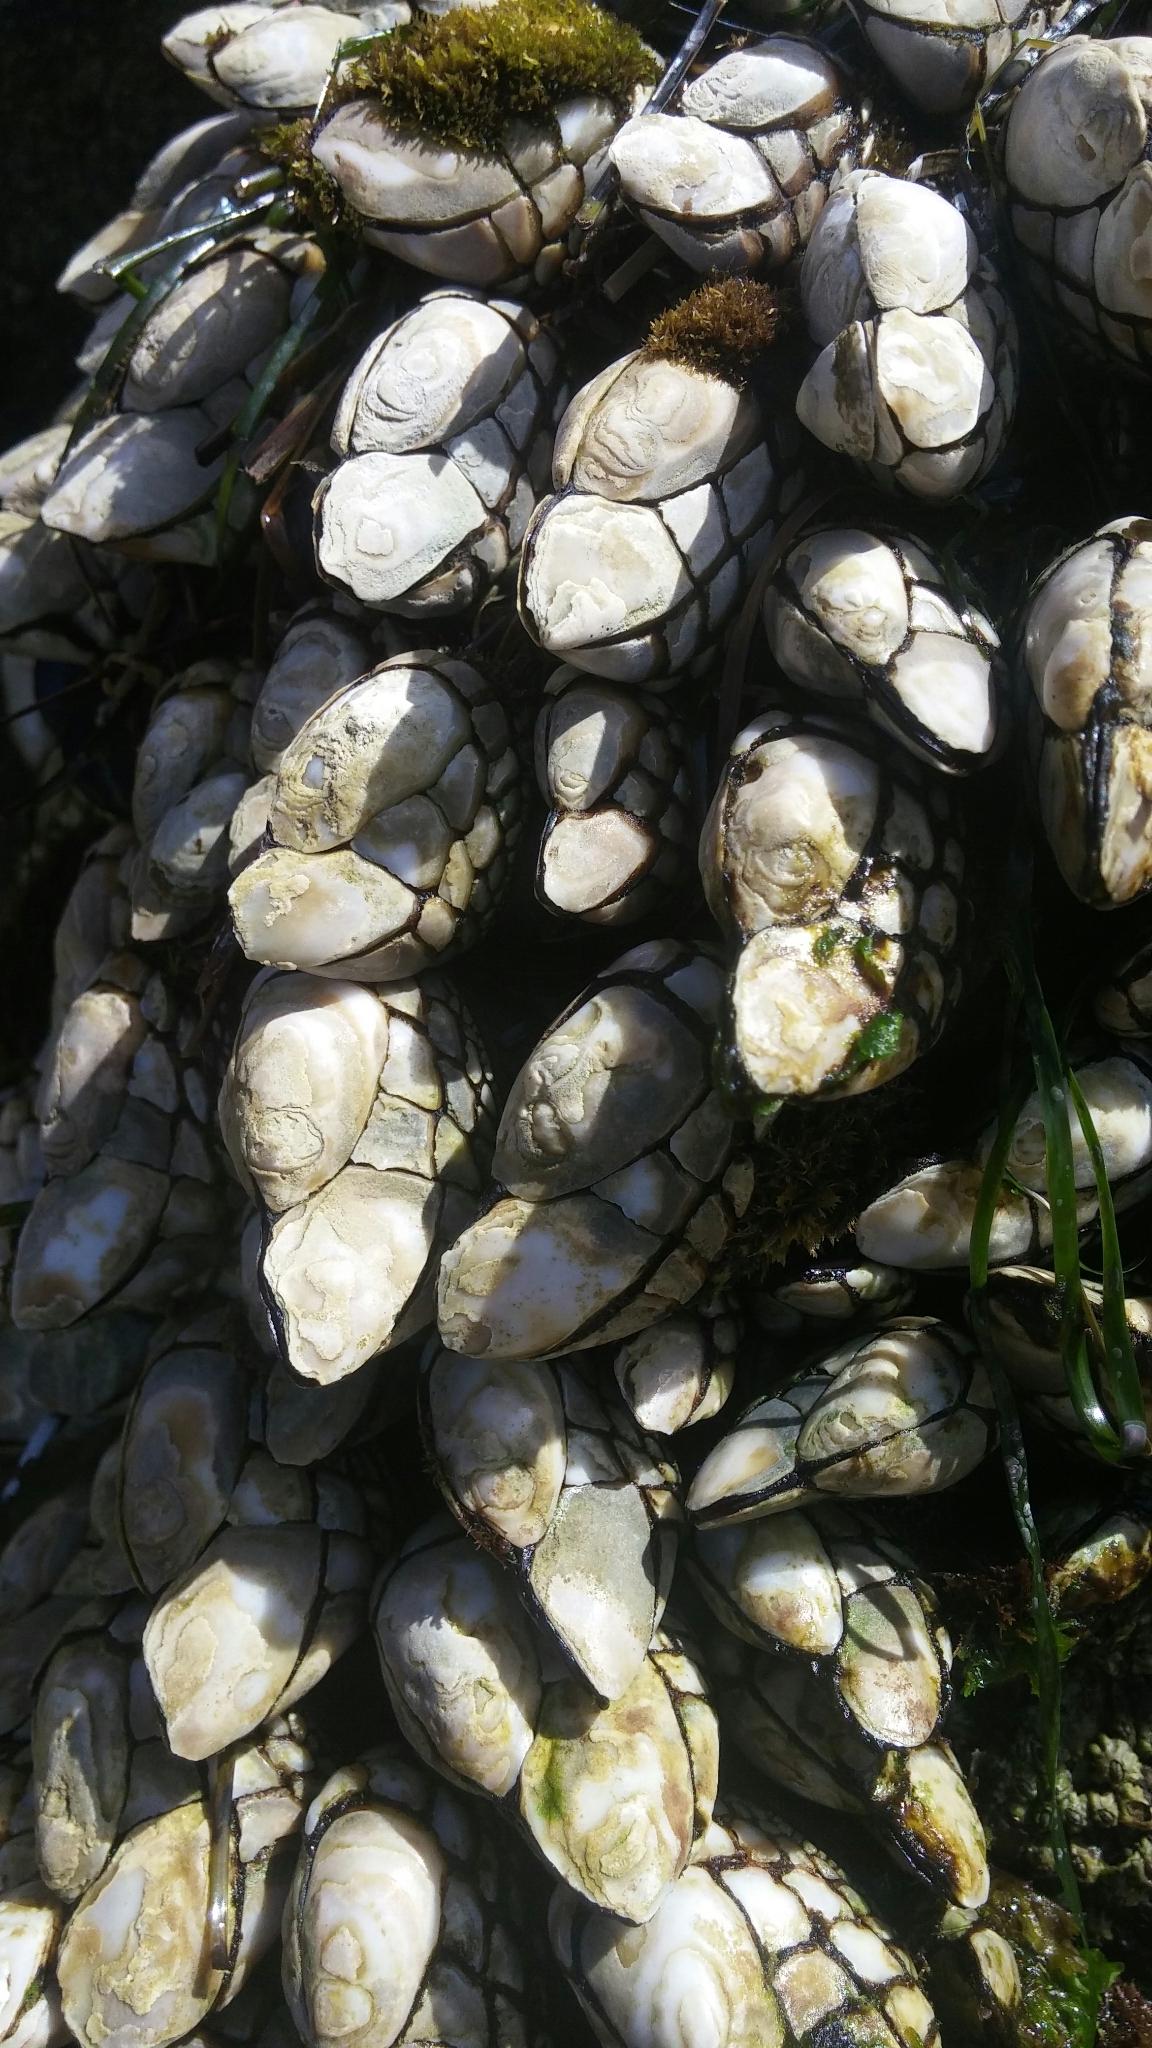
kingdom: Animalia
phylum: Arthropoda
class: Maxillopoda
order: Pedunculata
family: Pollicipedidae
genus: Pollicipes
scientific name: Pollicipes polymerus
